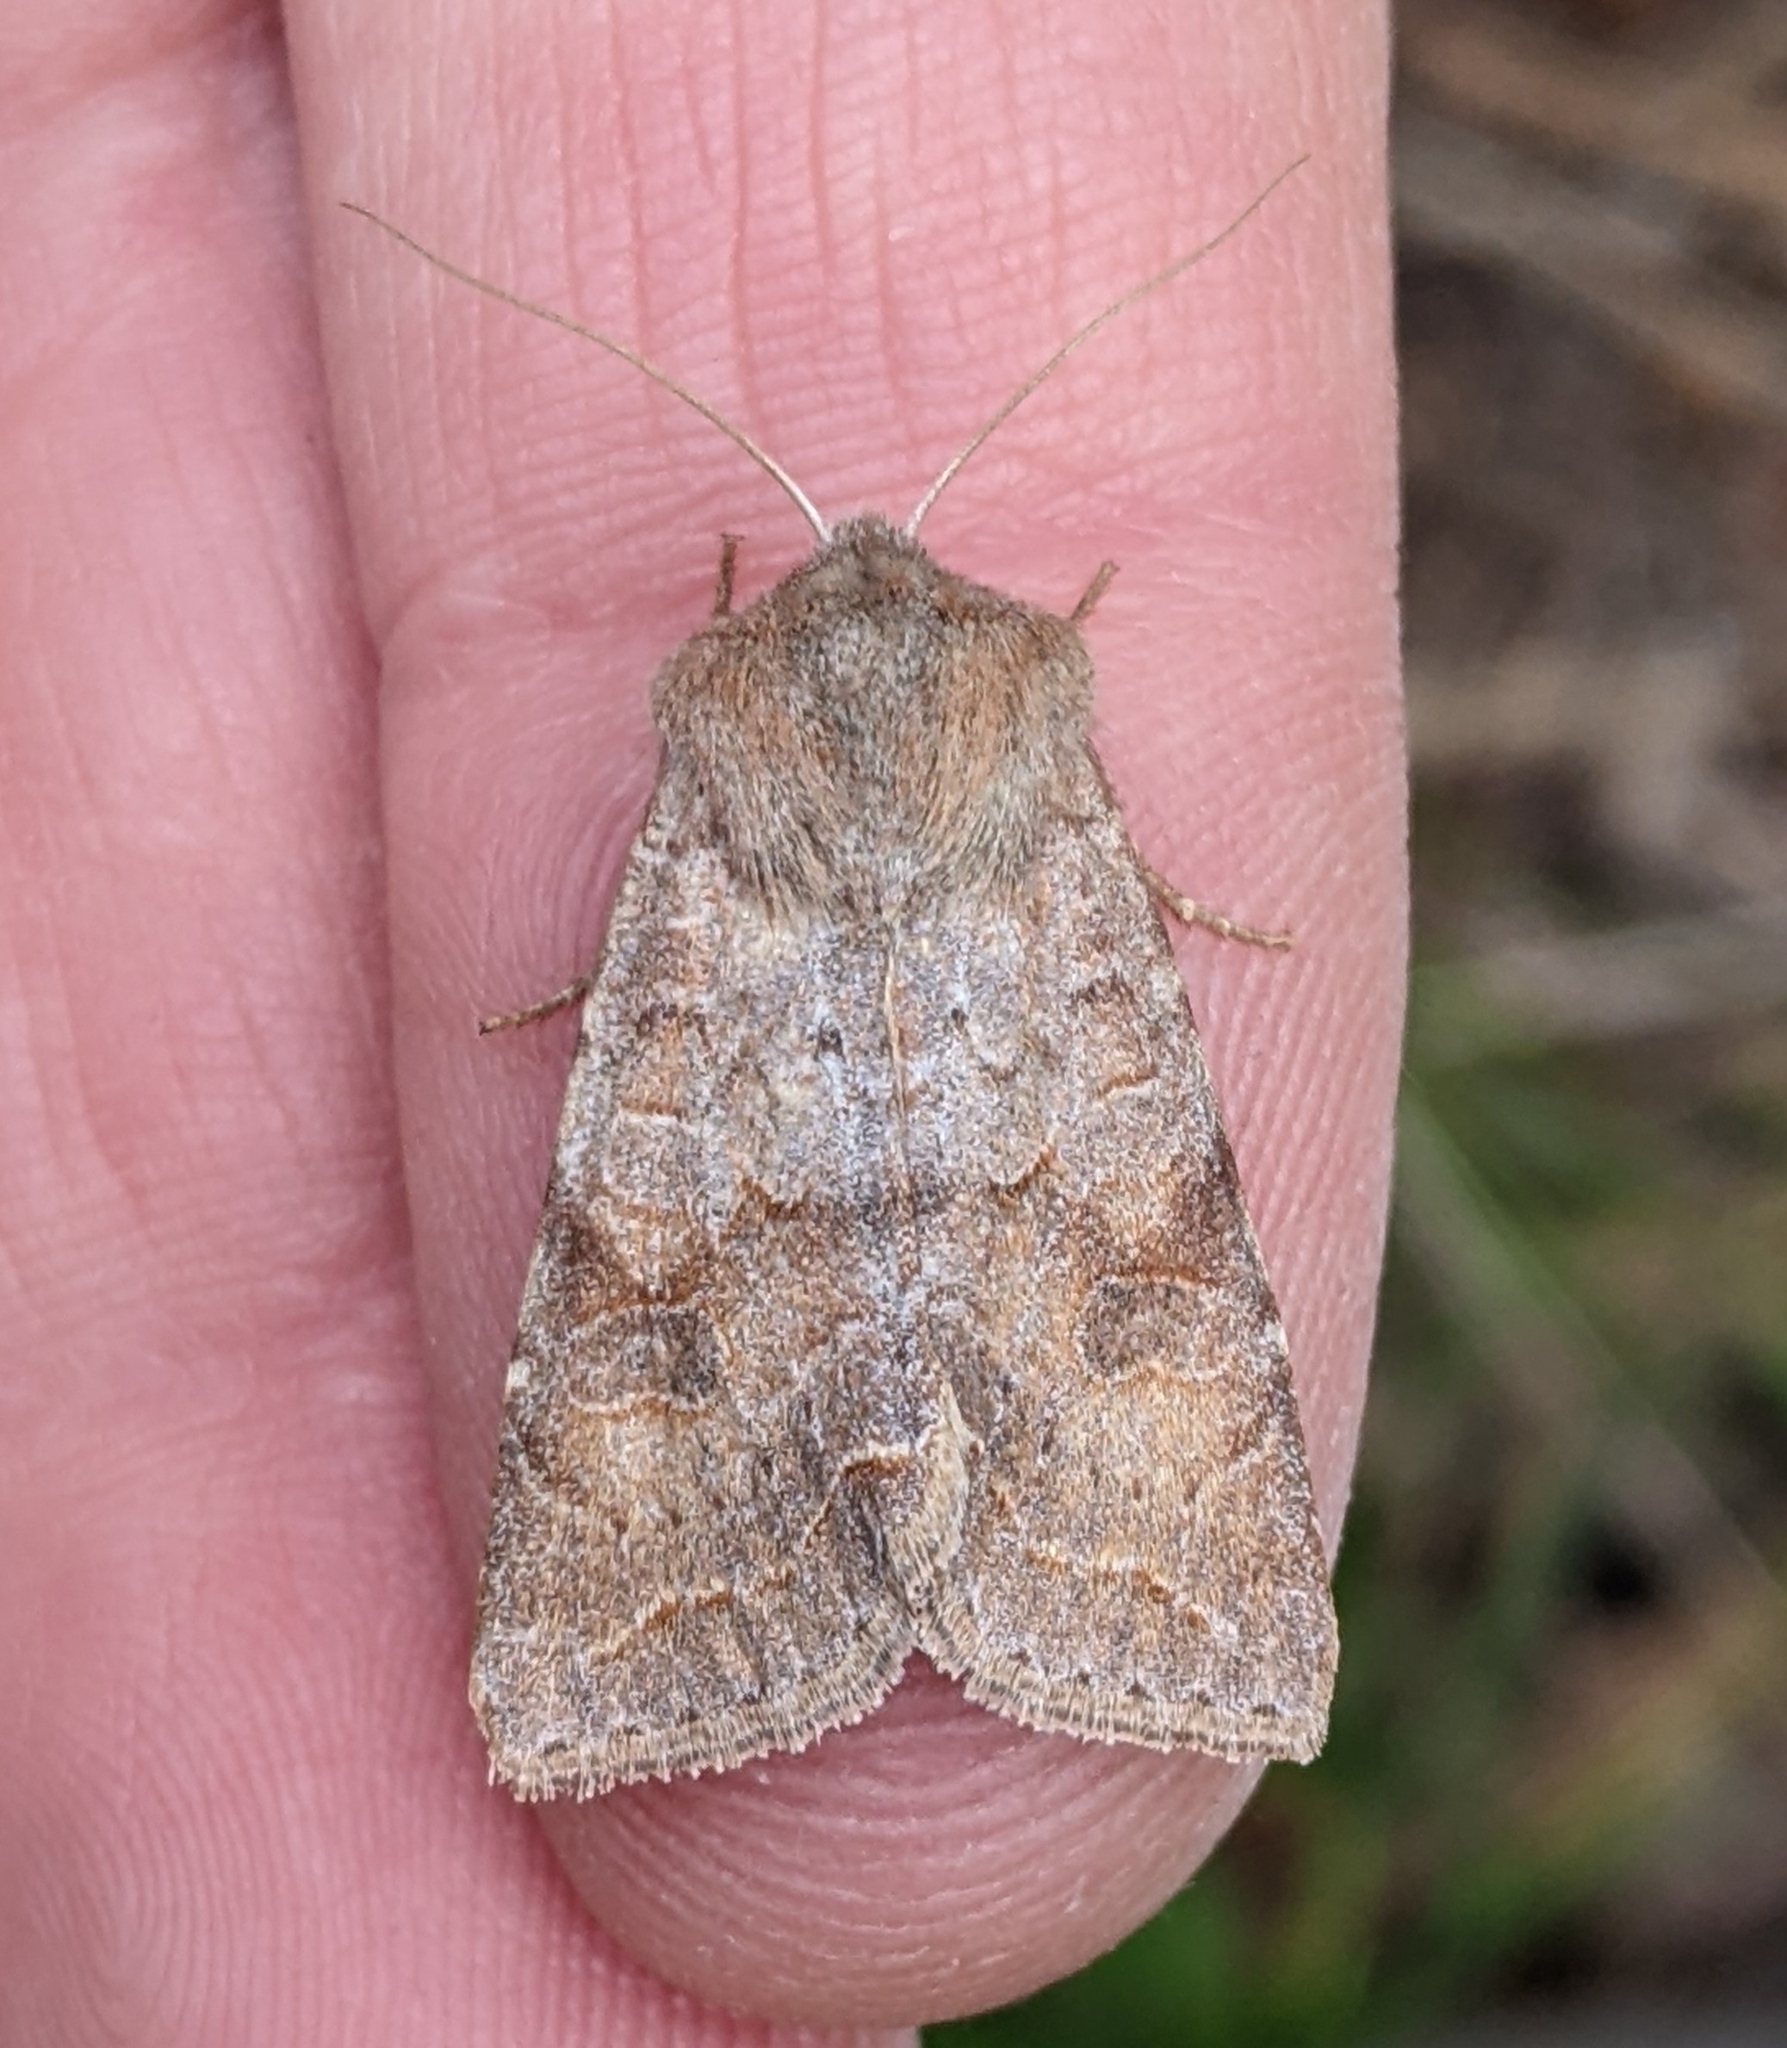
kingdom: Animalia
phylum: Arthropoda
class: Insecta
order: Lepidoptera
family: Noctuidae
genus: Orthosia
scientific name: Orthosia revicta
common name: Rusty whitesided caterpillar
